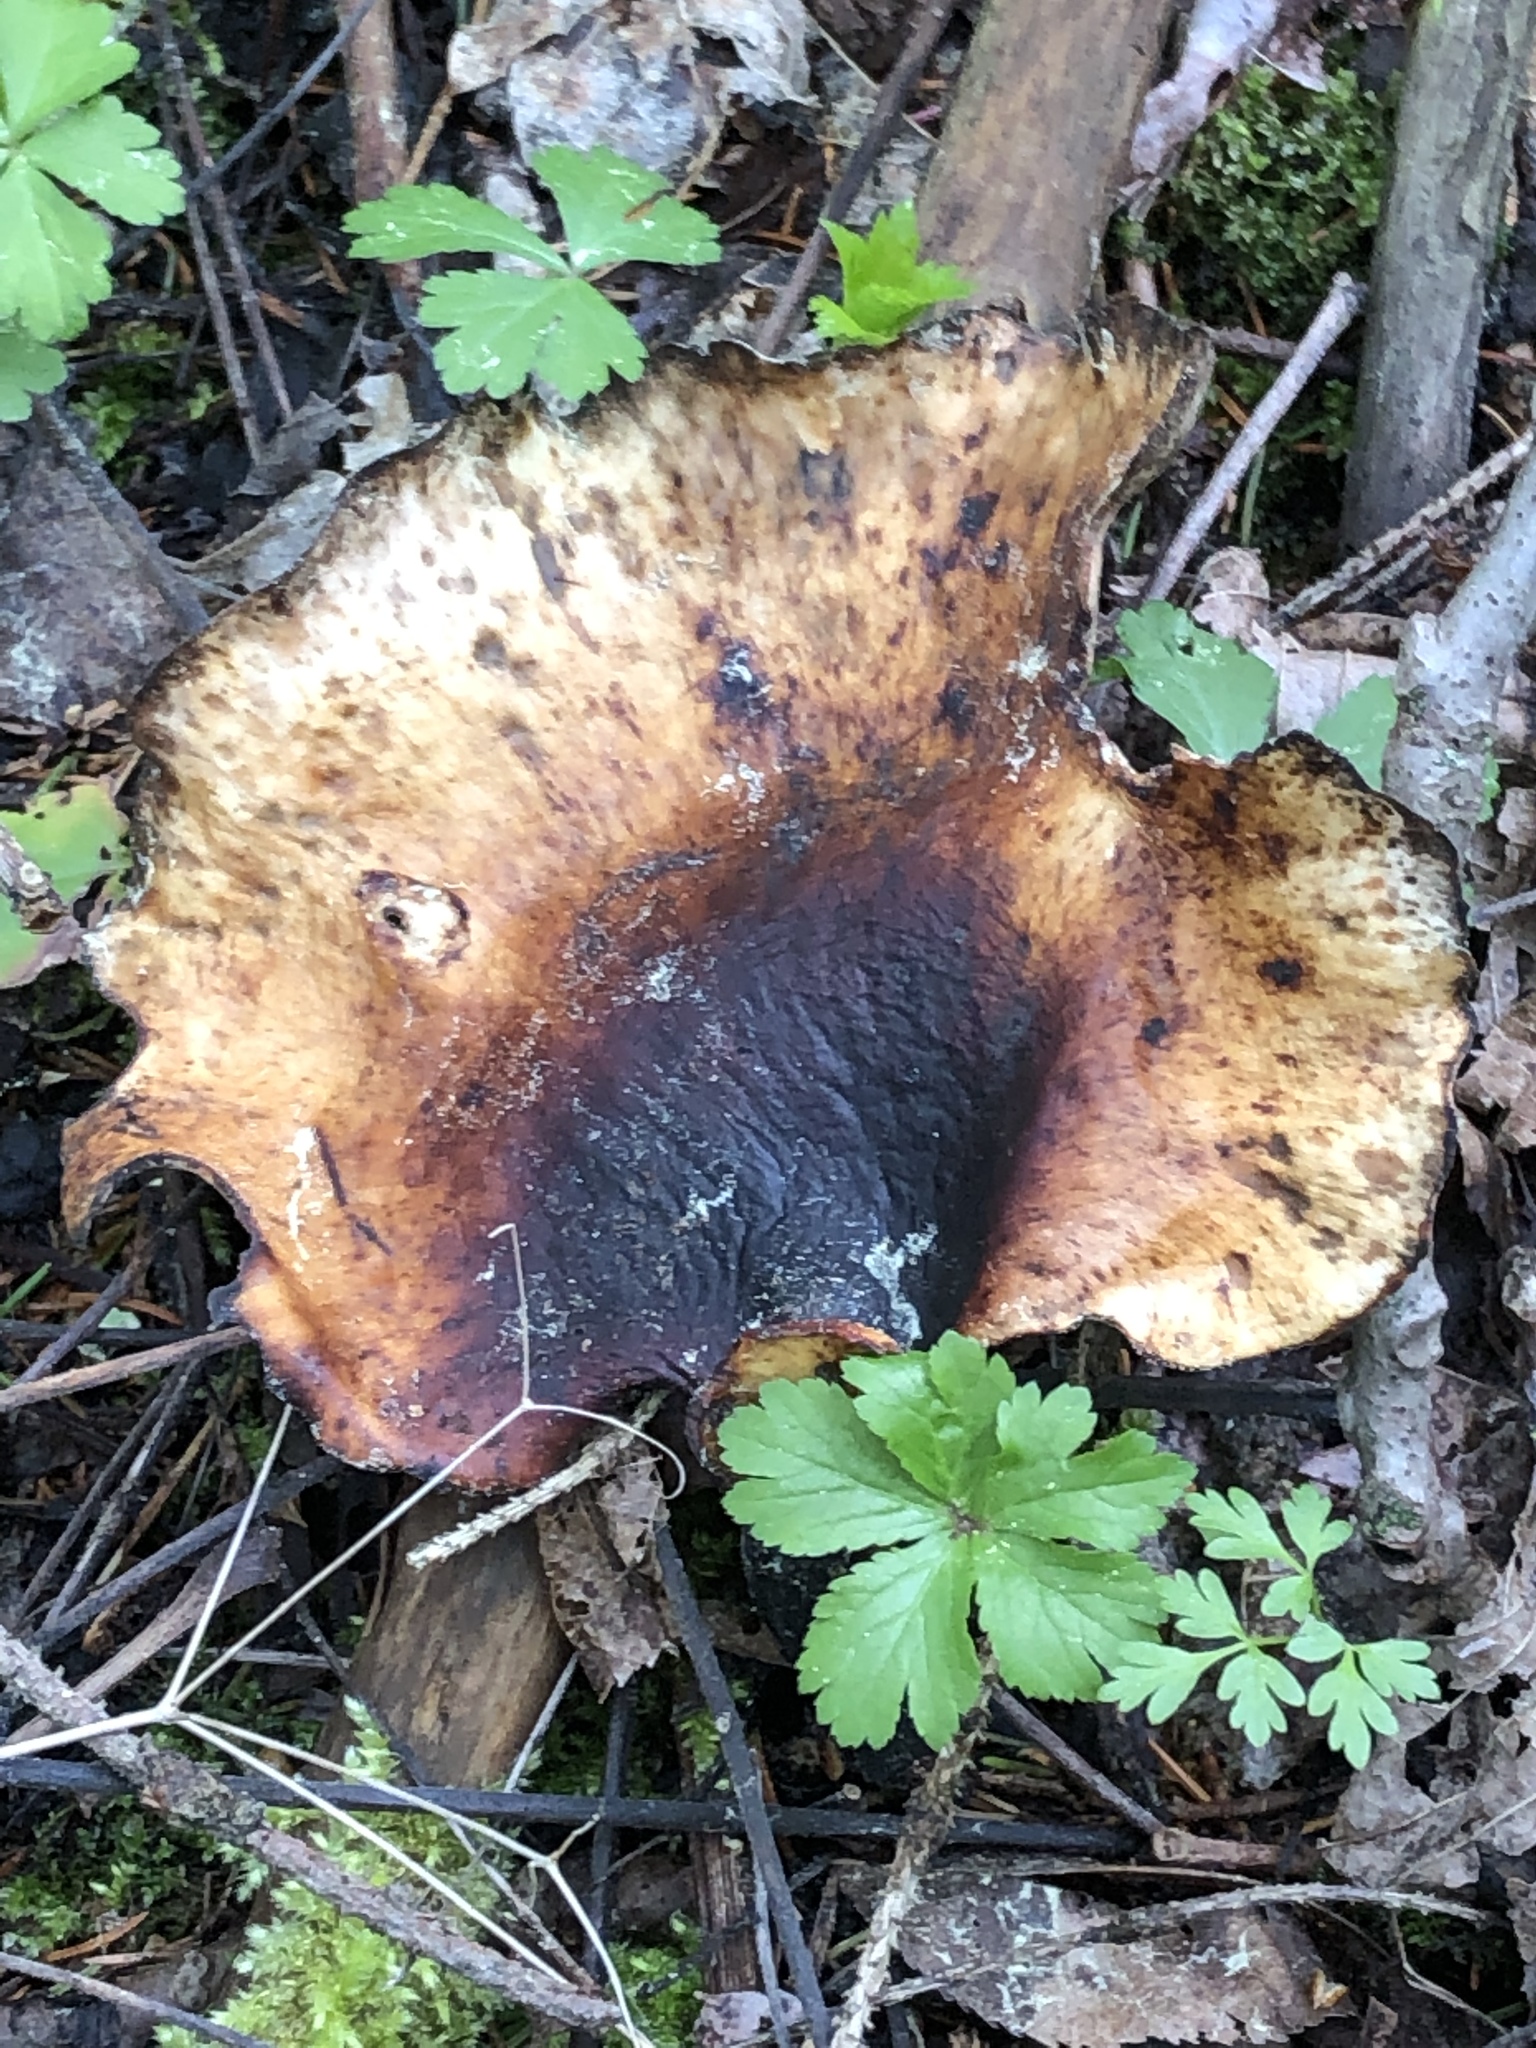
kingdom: Fungi
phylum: Basidiomycota
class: Agaricomycetes
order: Polyporales
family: Polyporaceae
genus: Picipes
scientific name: Picipes badius
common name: Bay polypore
